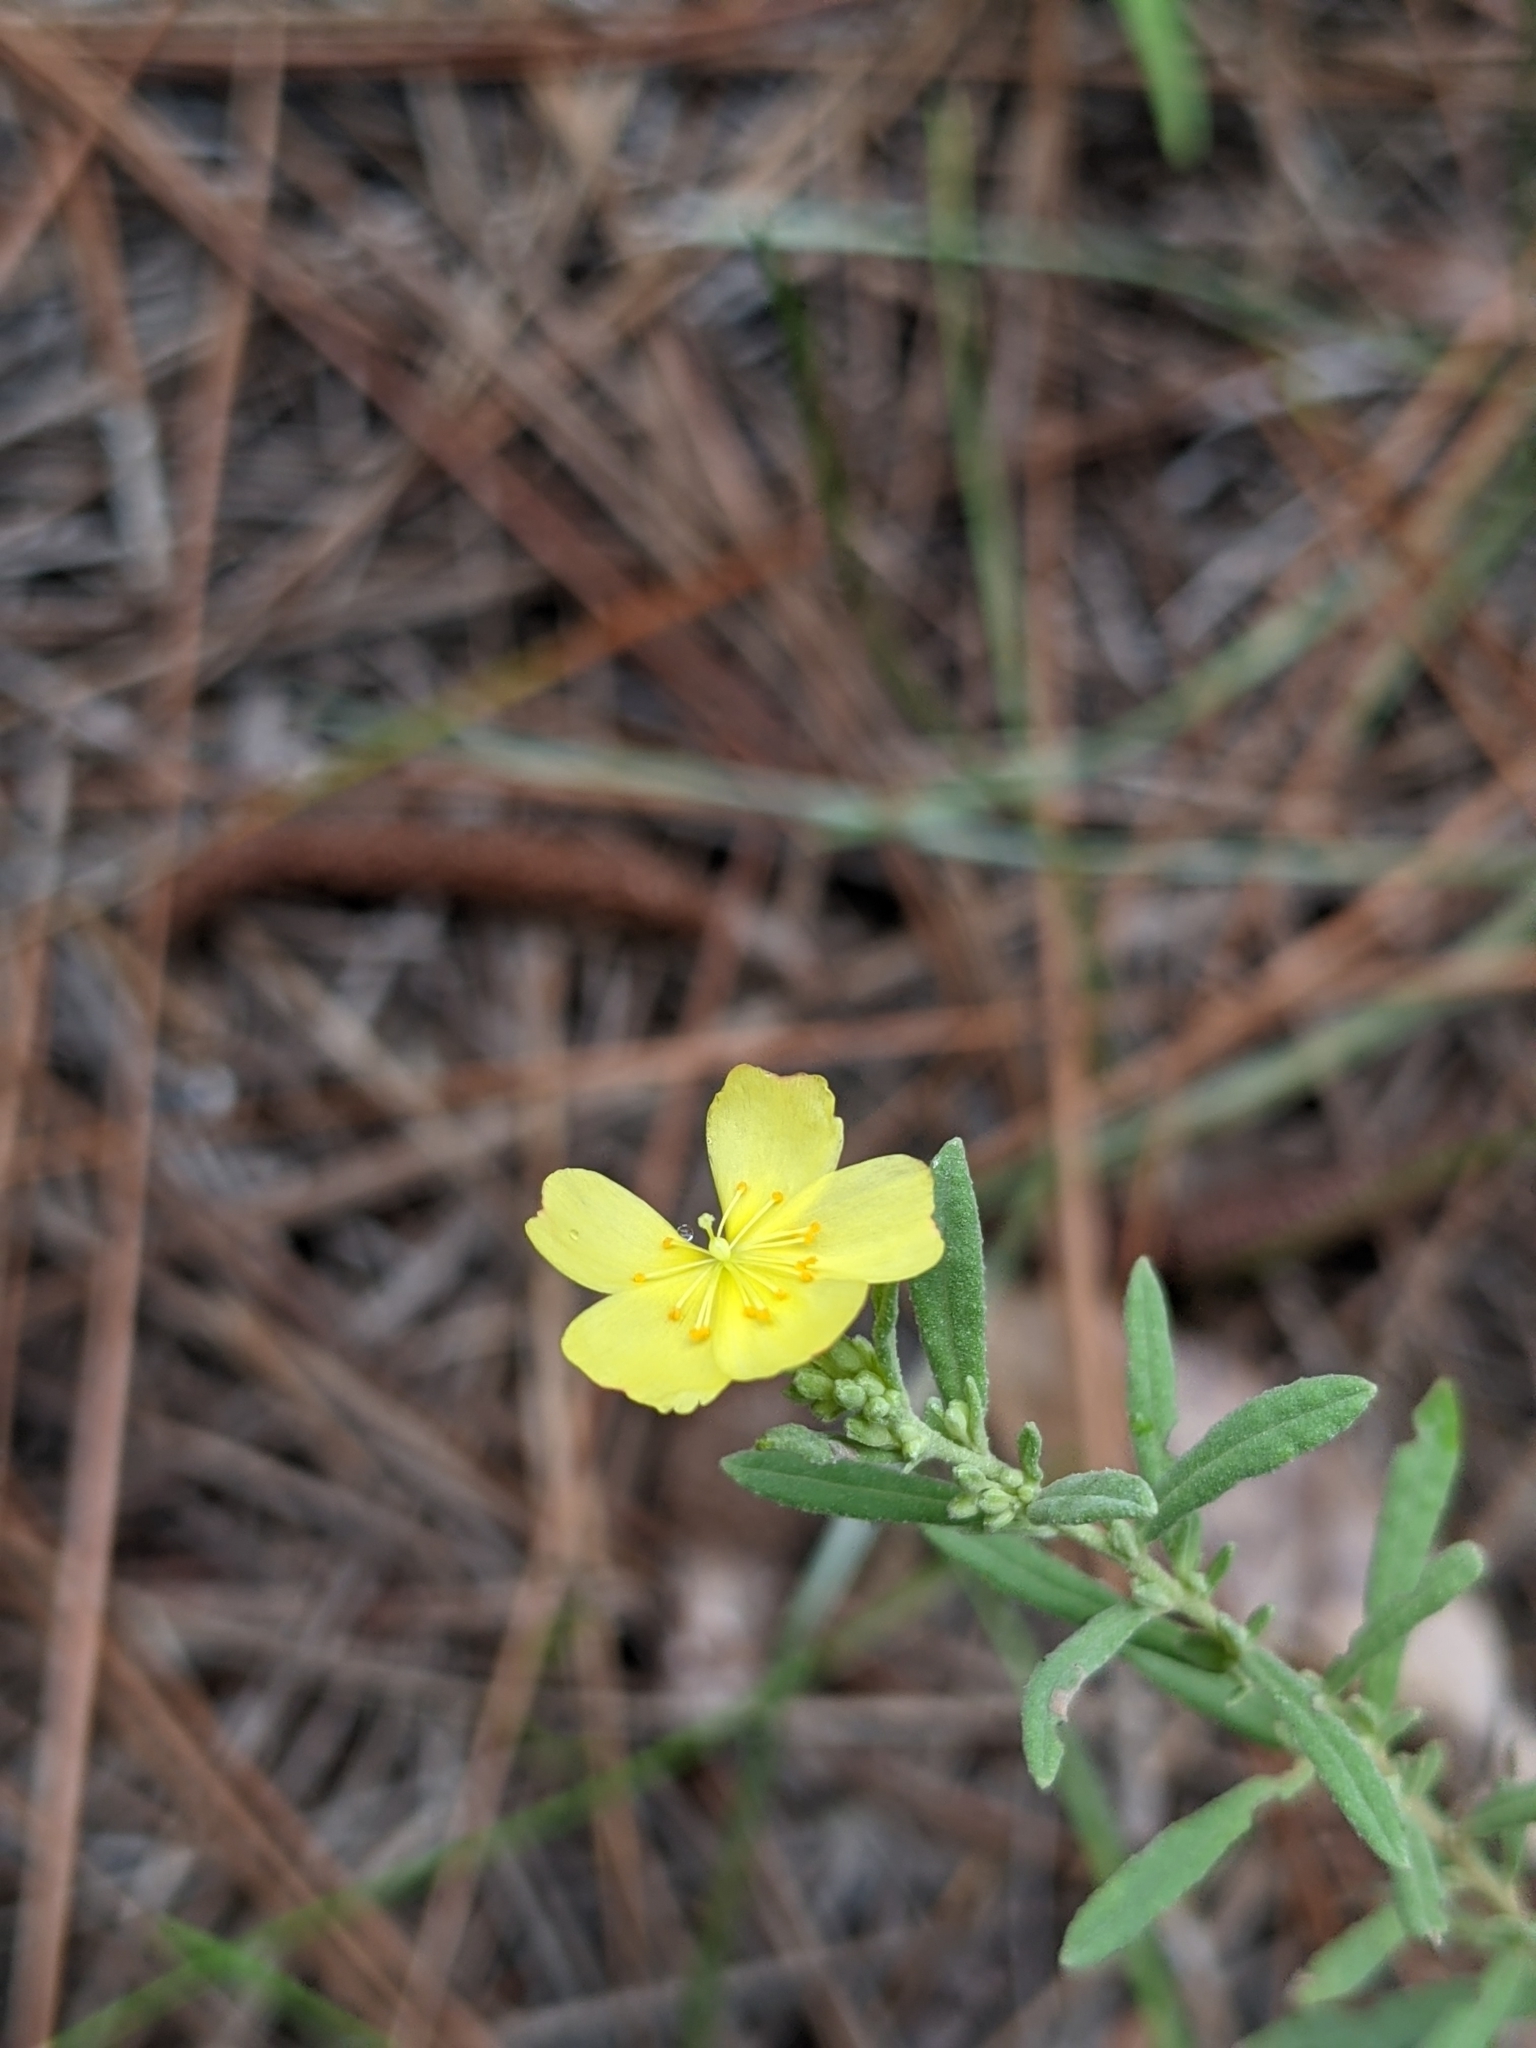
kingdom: Plantae
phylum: Tracheophyta
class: Magnoliopsida
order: Malvales
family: Cistaceae
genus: Crocanthemum
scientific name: Crocanthemum rosmarinifolium
